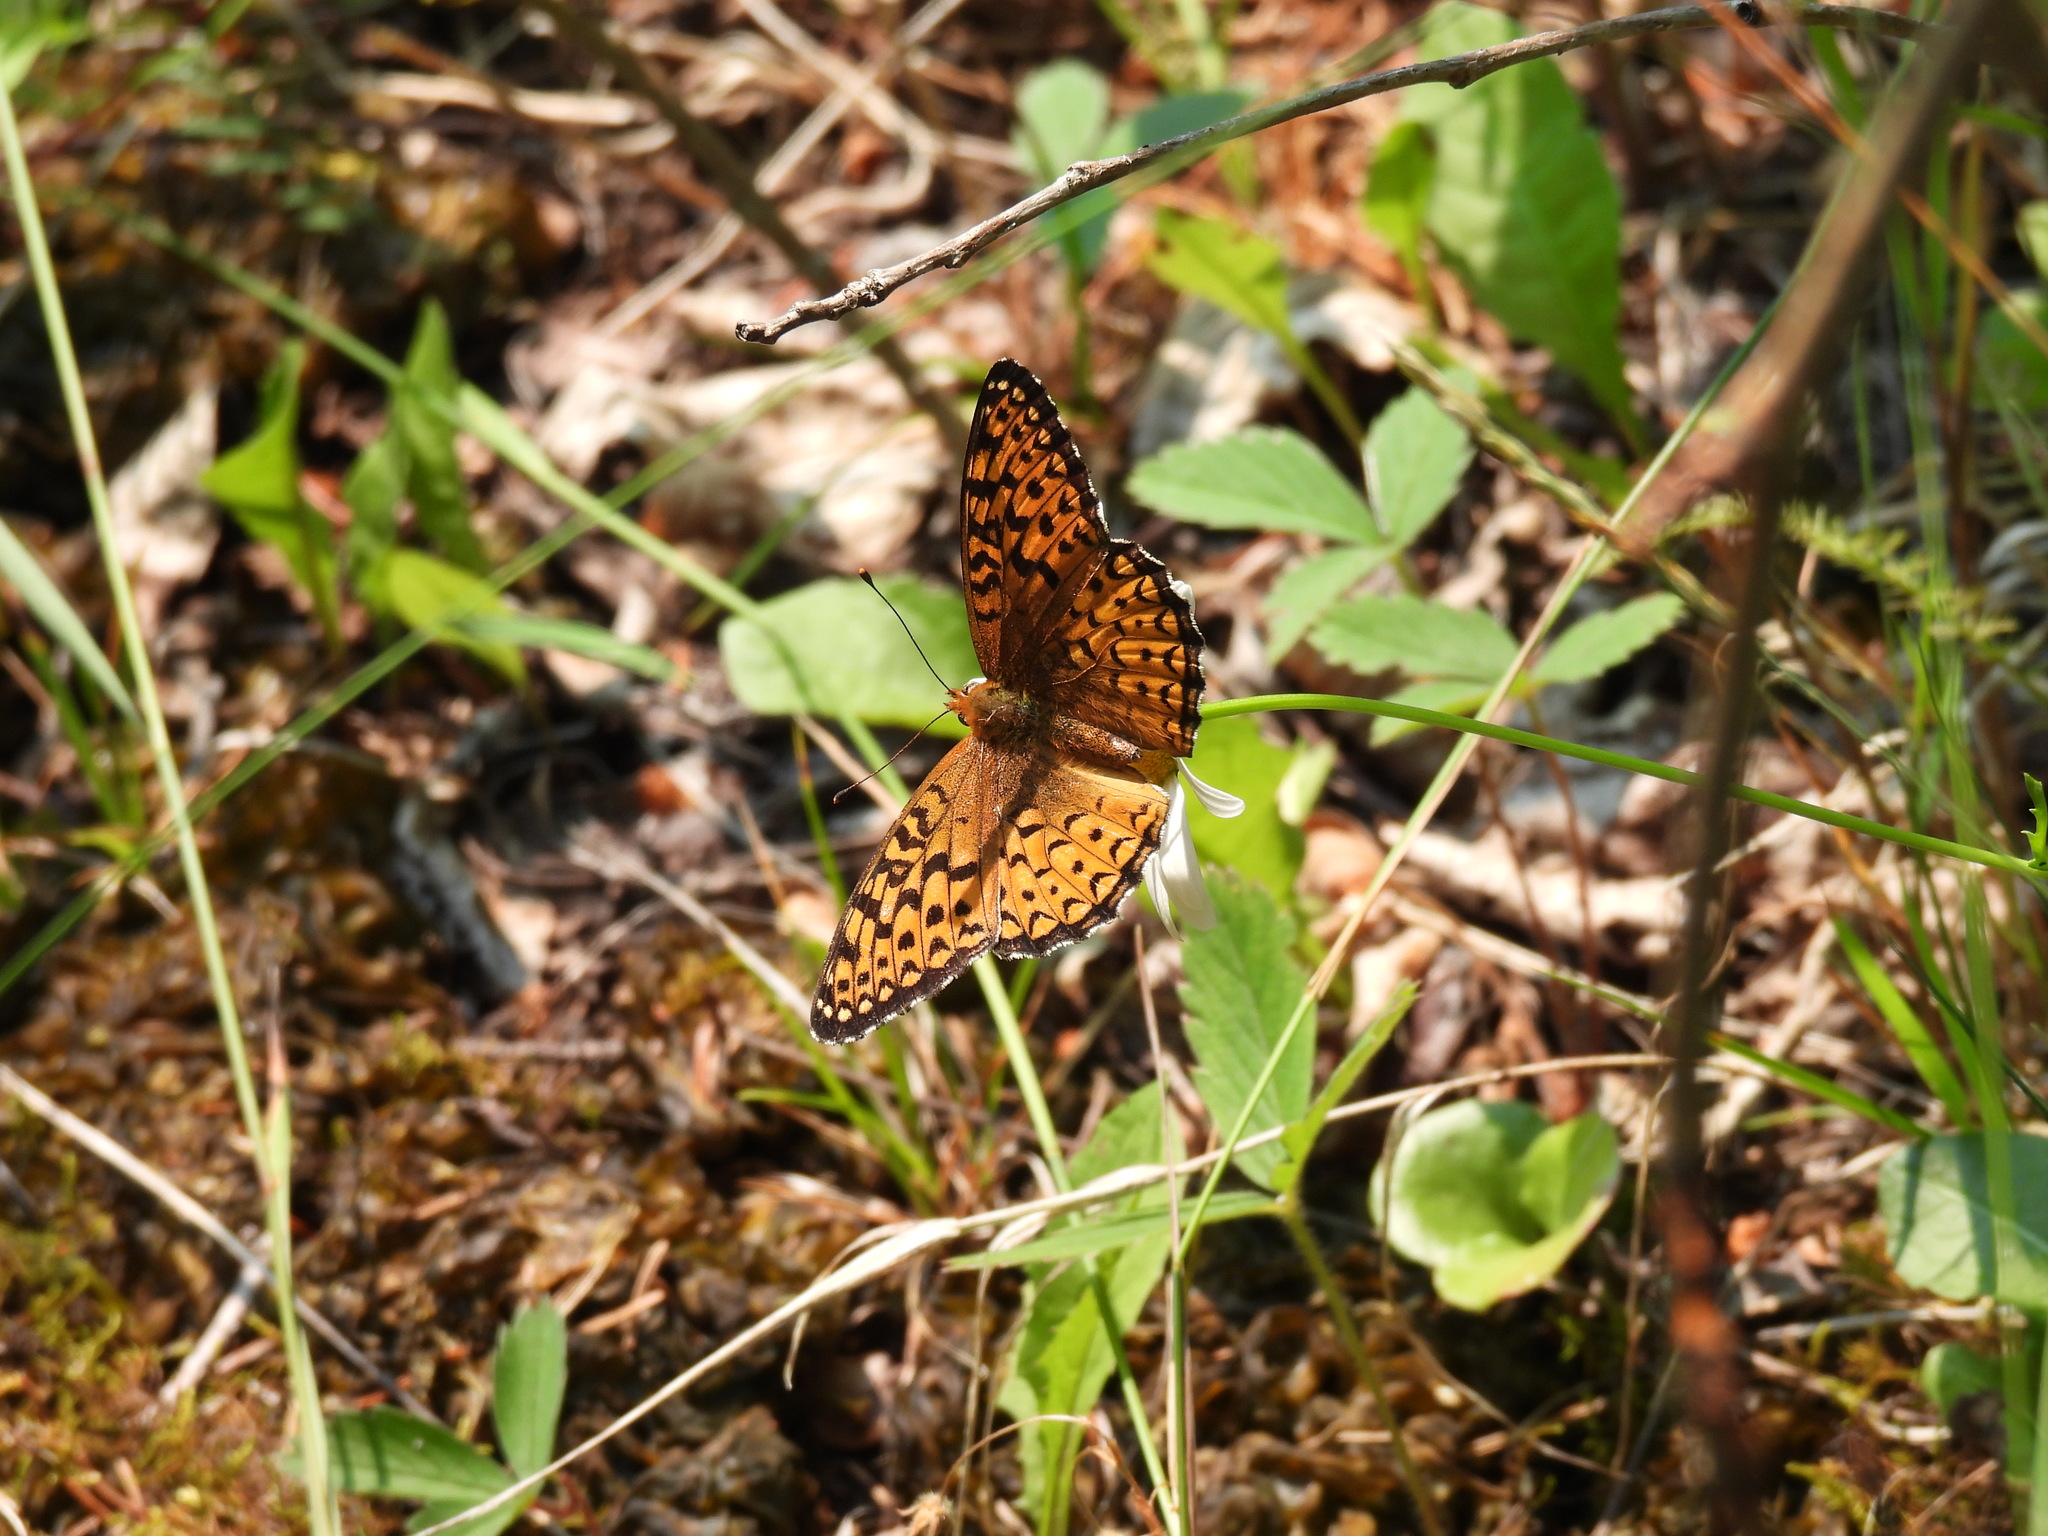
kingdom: Animalia
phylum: Arthropoda
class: Insecta
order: Lepidoptera
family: Nymphalidae
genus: Speyeria
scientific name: Speyeria atlantis
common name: Atlantis fritillary
